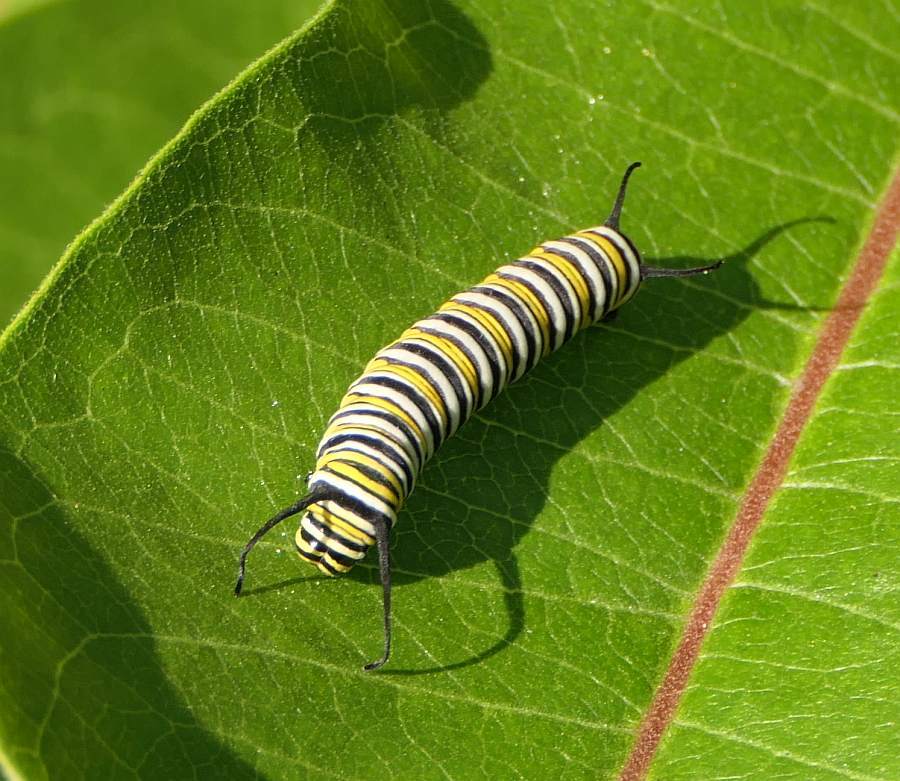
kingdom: Animalia
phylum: Arthropoda
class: Insecta
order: Lepidoptera
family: Nymphalidae
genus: Danaus
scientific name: Danaus plexippus
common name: Monarch
